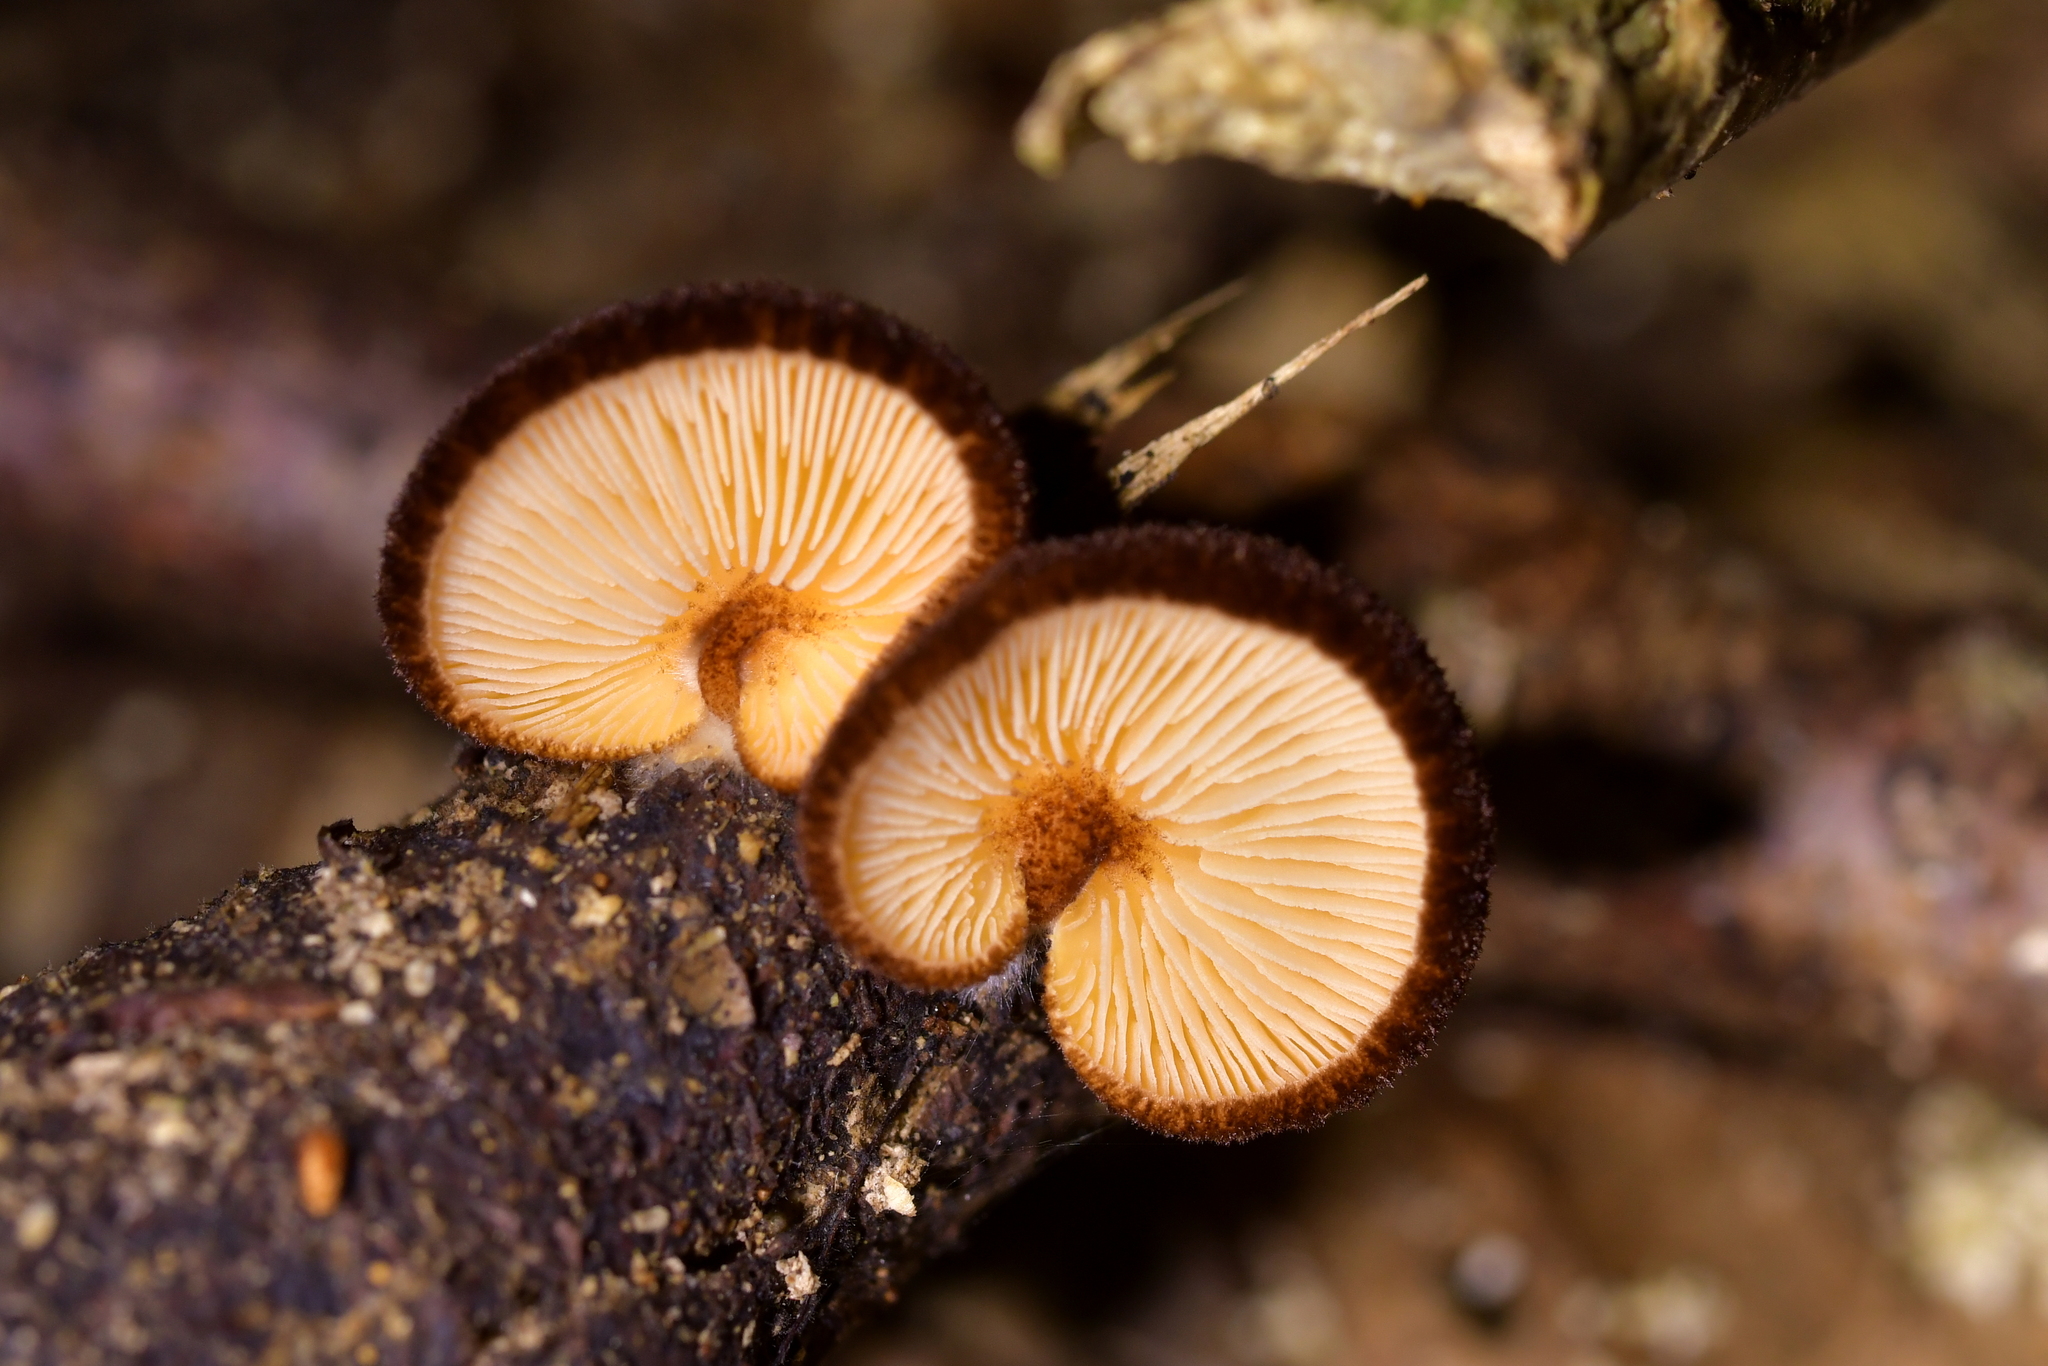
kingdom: Fungi
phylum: Basidiomycota
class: Agaricomycetes
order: Agaricales
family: Crepidotaceae
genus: Crepidotus
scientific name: Crepidotus fuscovelutinus
